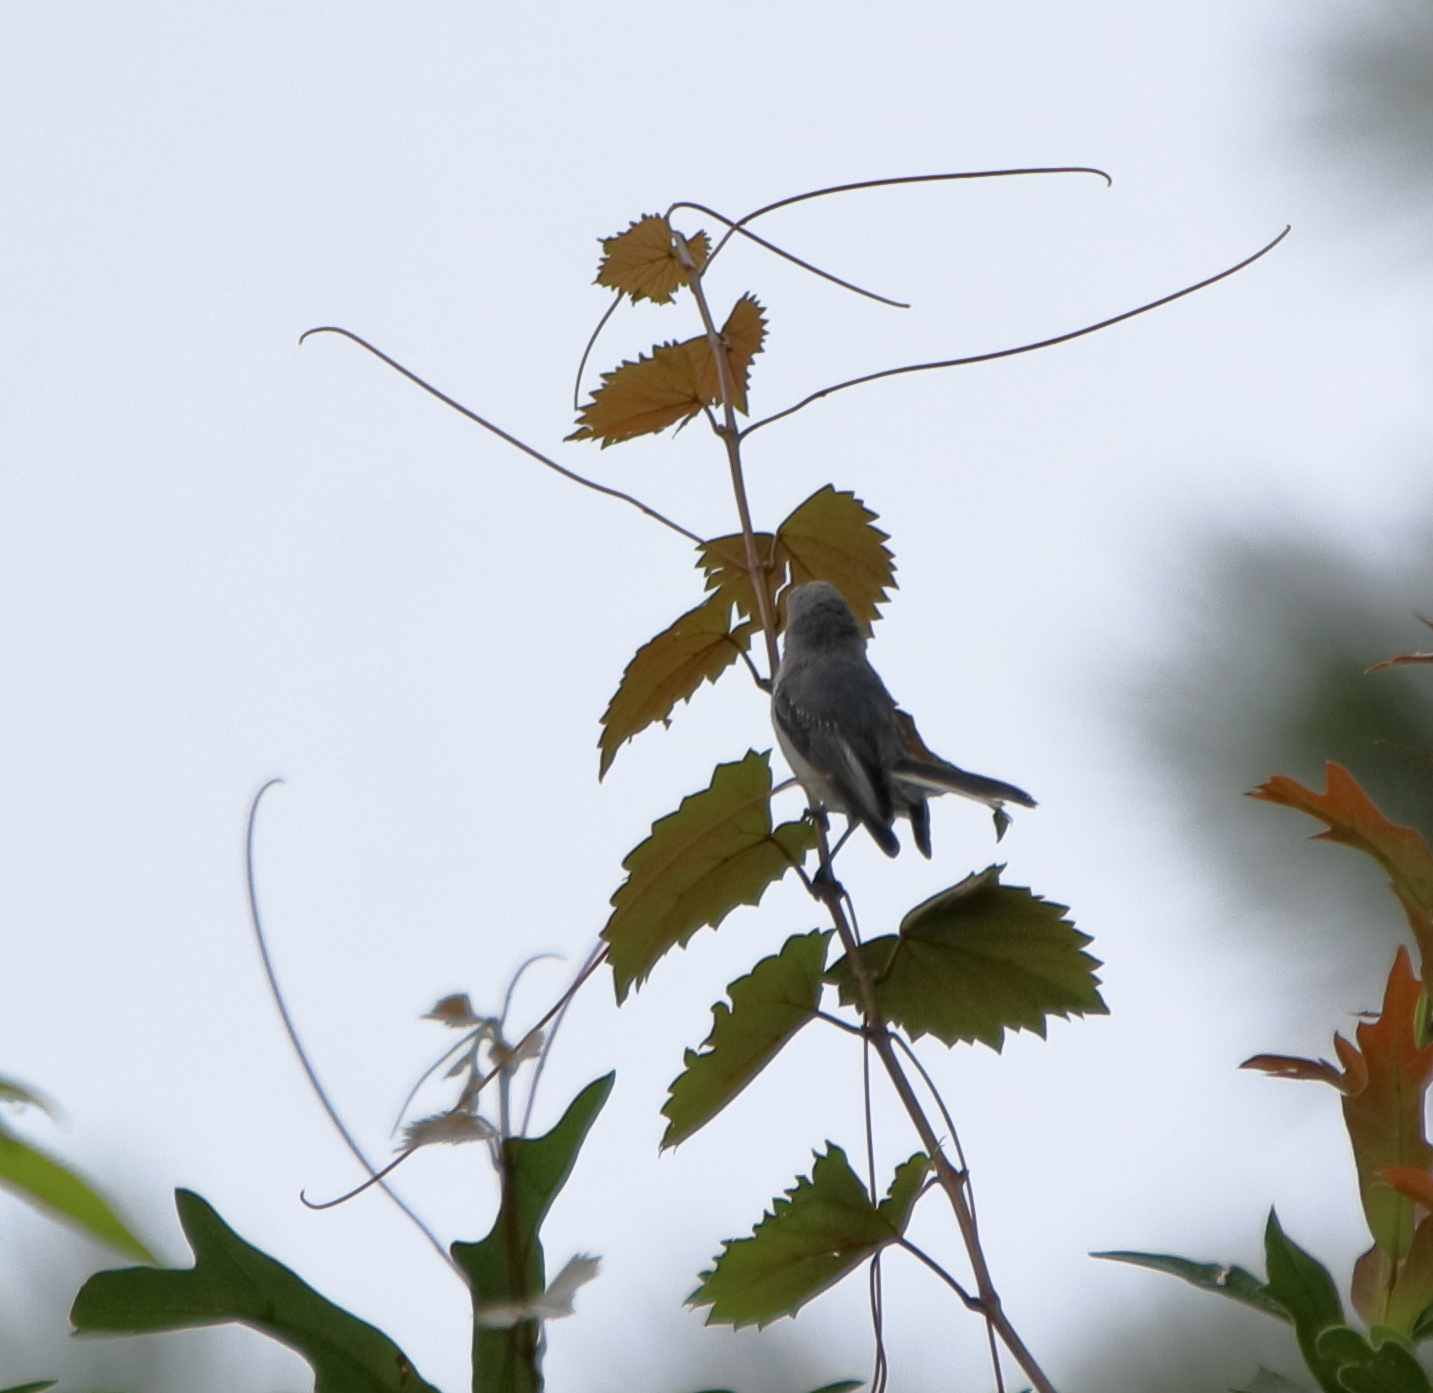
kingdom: Animalia
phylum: Chordata
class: Aves
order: Passeriformes
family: Polioptilidae
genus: Polioptila
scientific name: Polioptila caerulea
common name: Blue-gray gnatcatcher
